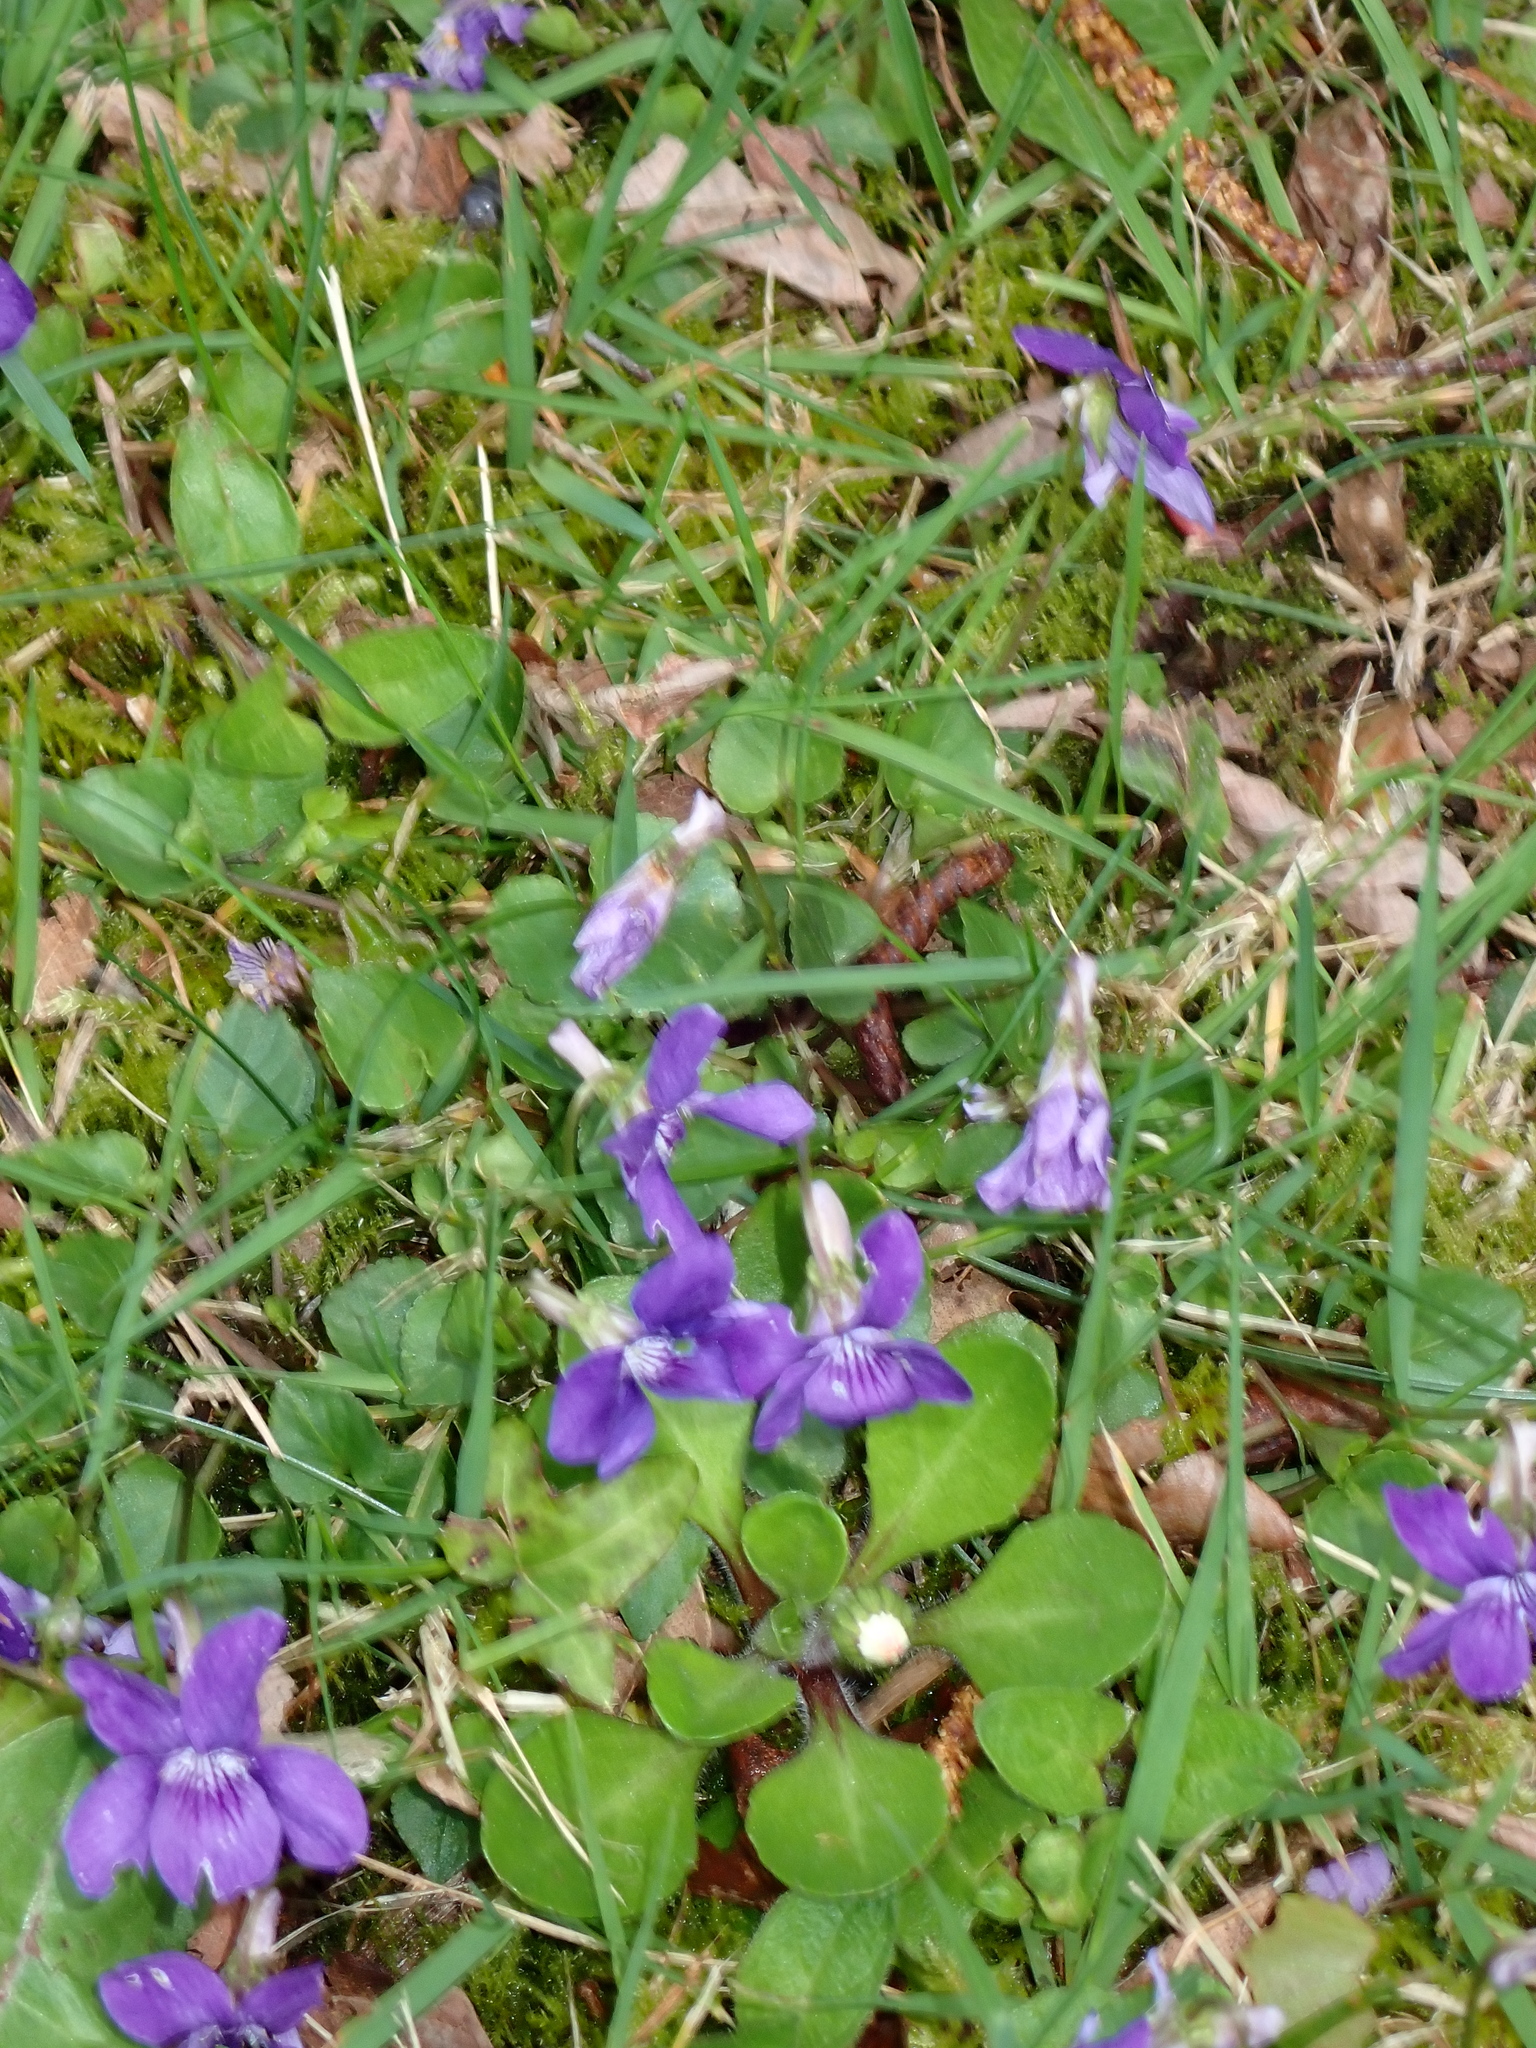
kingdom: Plantae
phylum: Tracheophyta
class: Magnoliopsida
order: Malpighiales
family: Violaceae
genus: Viola
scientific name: Viola riviniana
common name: Common dog-violet
